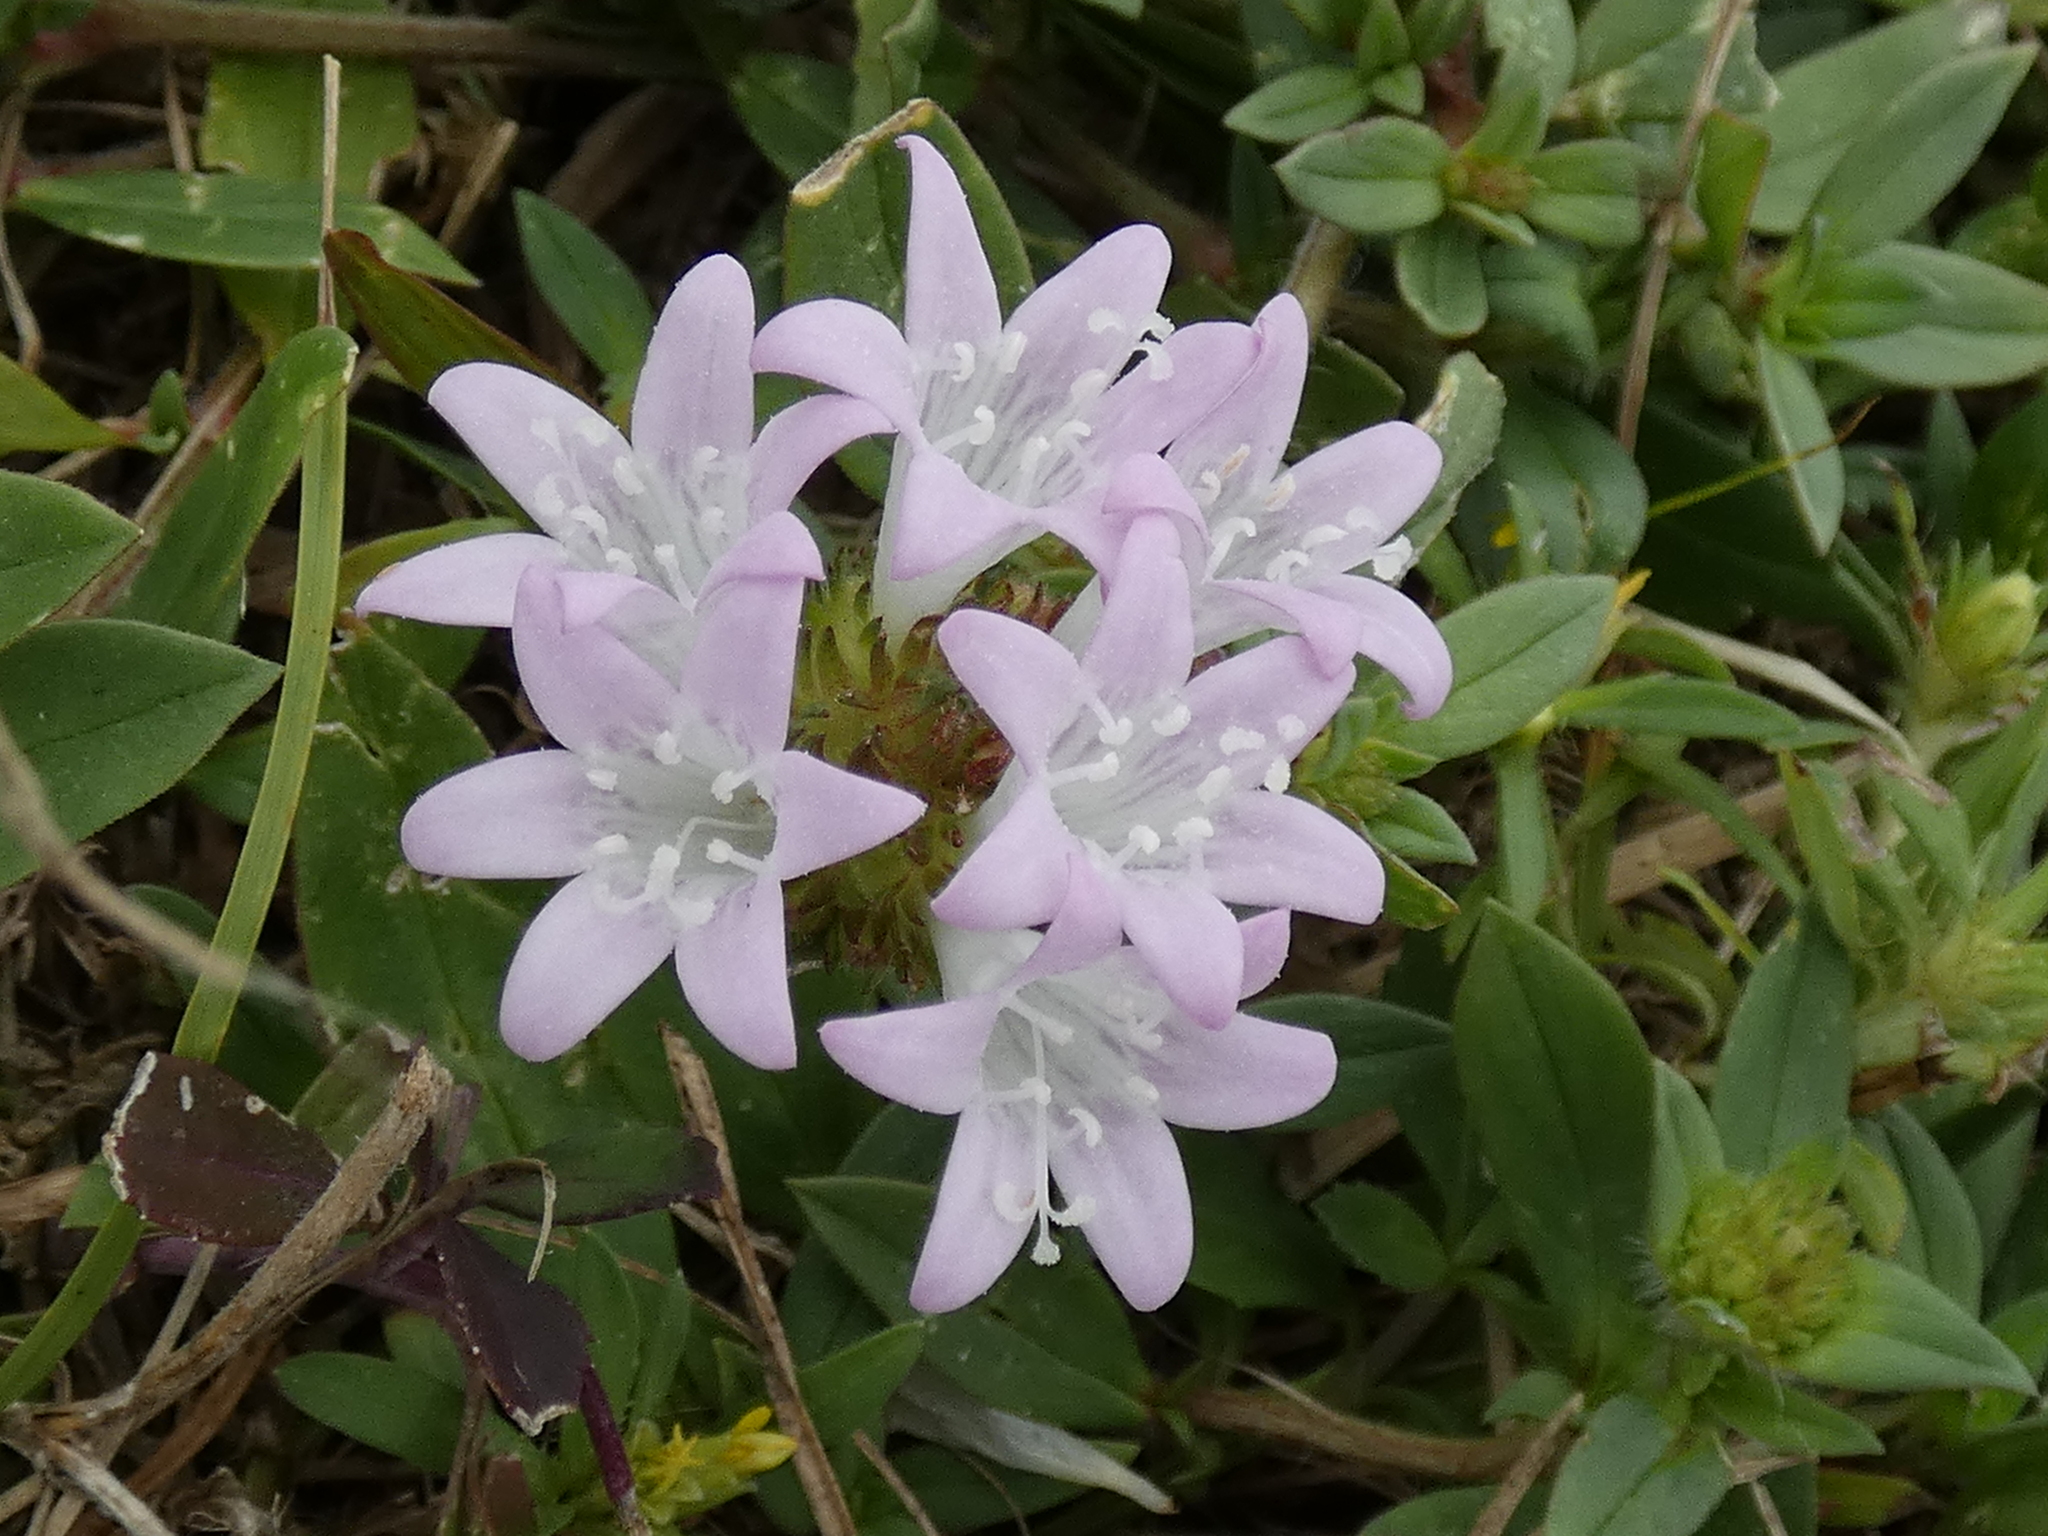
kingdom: Plantae
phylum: Tracheophyta
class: Magnoliopsida
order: Gentianales
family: Rubiaceae
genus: Richardia
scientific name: Richardia grandiflora
